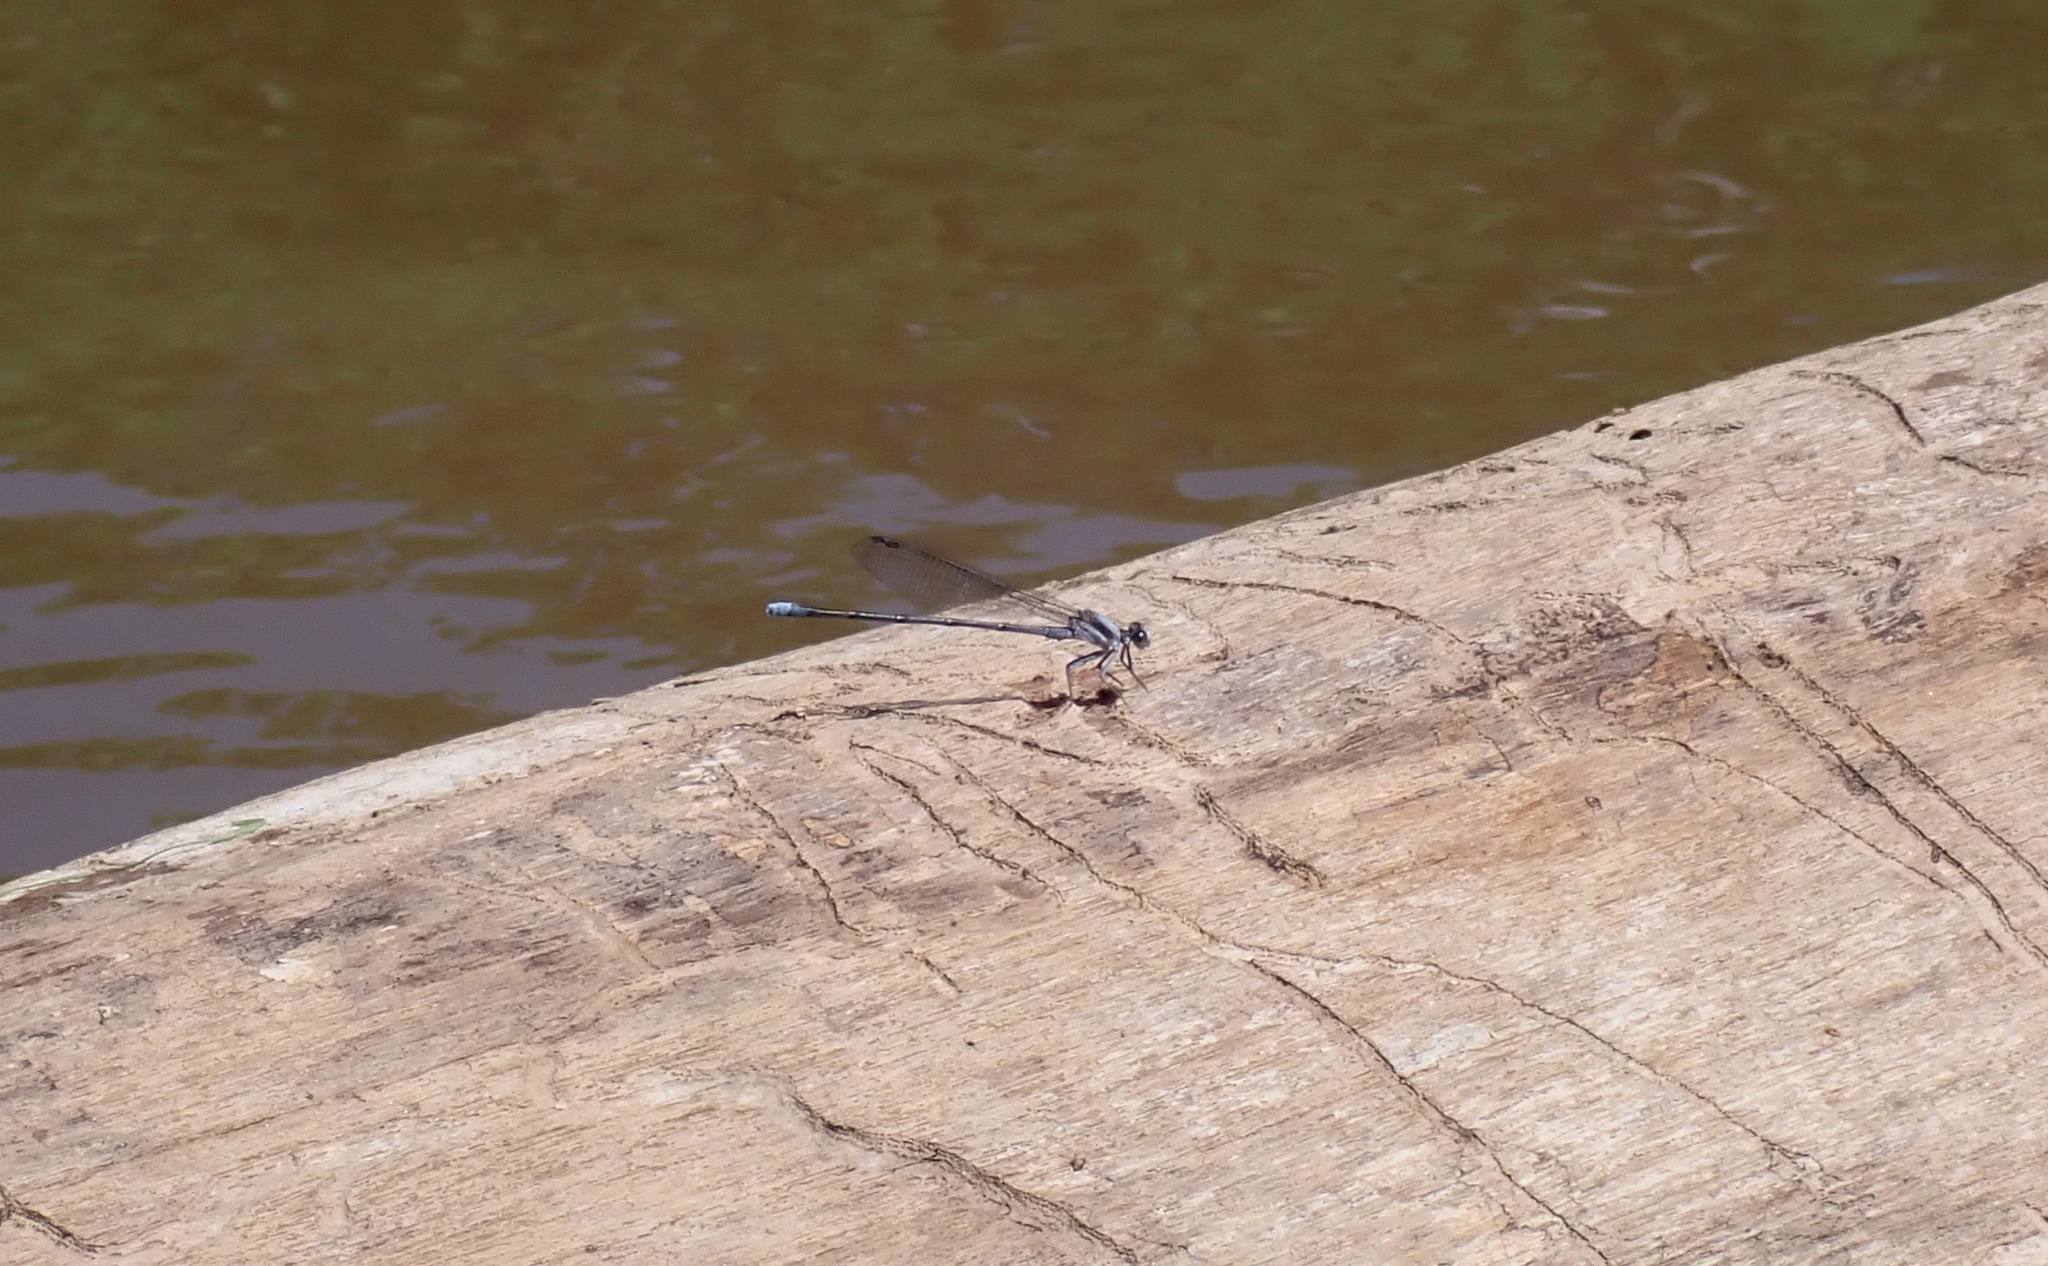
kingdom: Animalia
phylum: Arthropoda
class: Insecta
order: Odonata
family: Coenagrionidae
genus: Argia
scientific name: Argia moesta
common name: Powdered dancer
